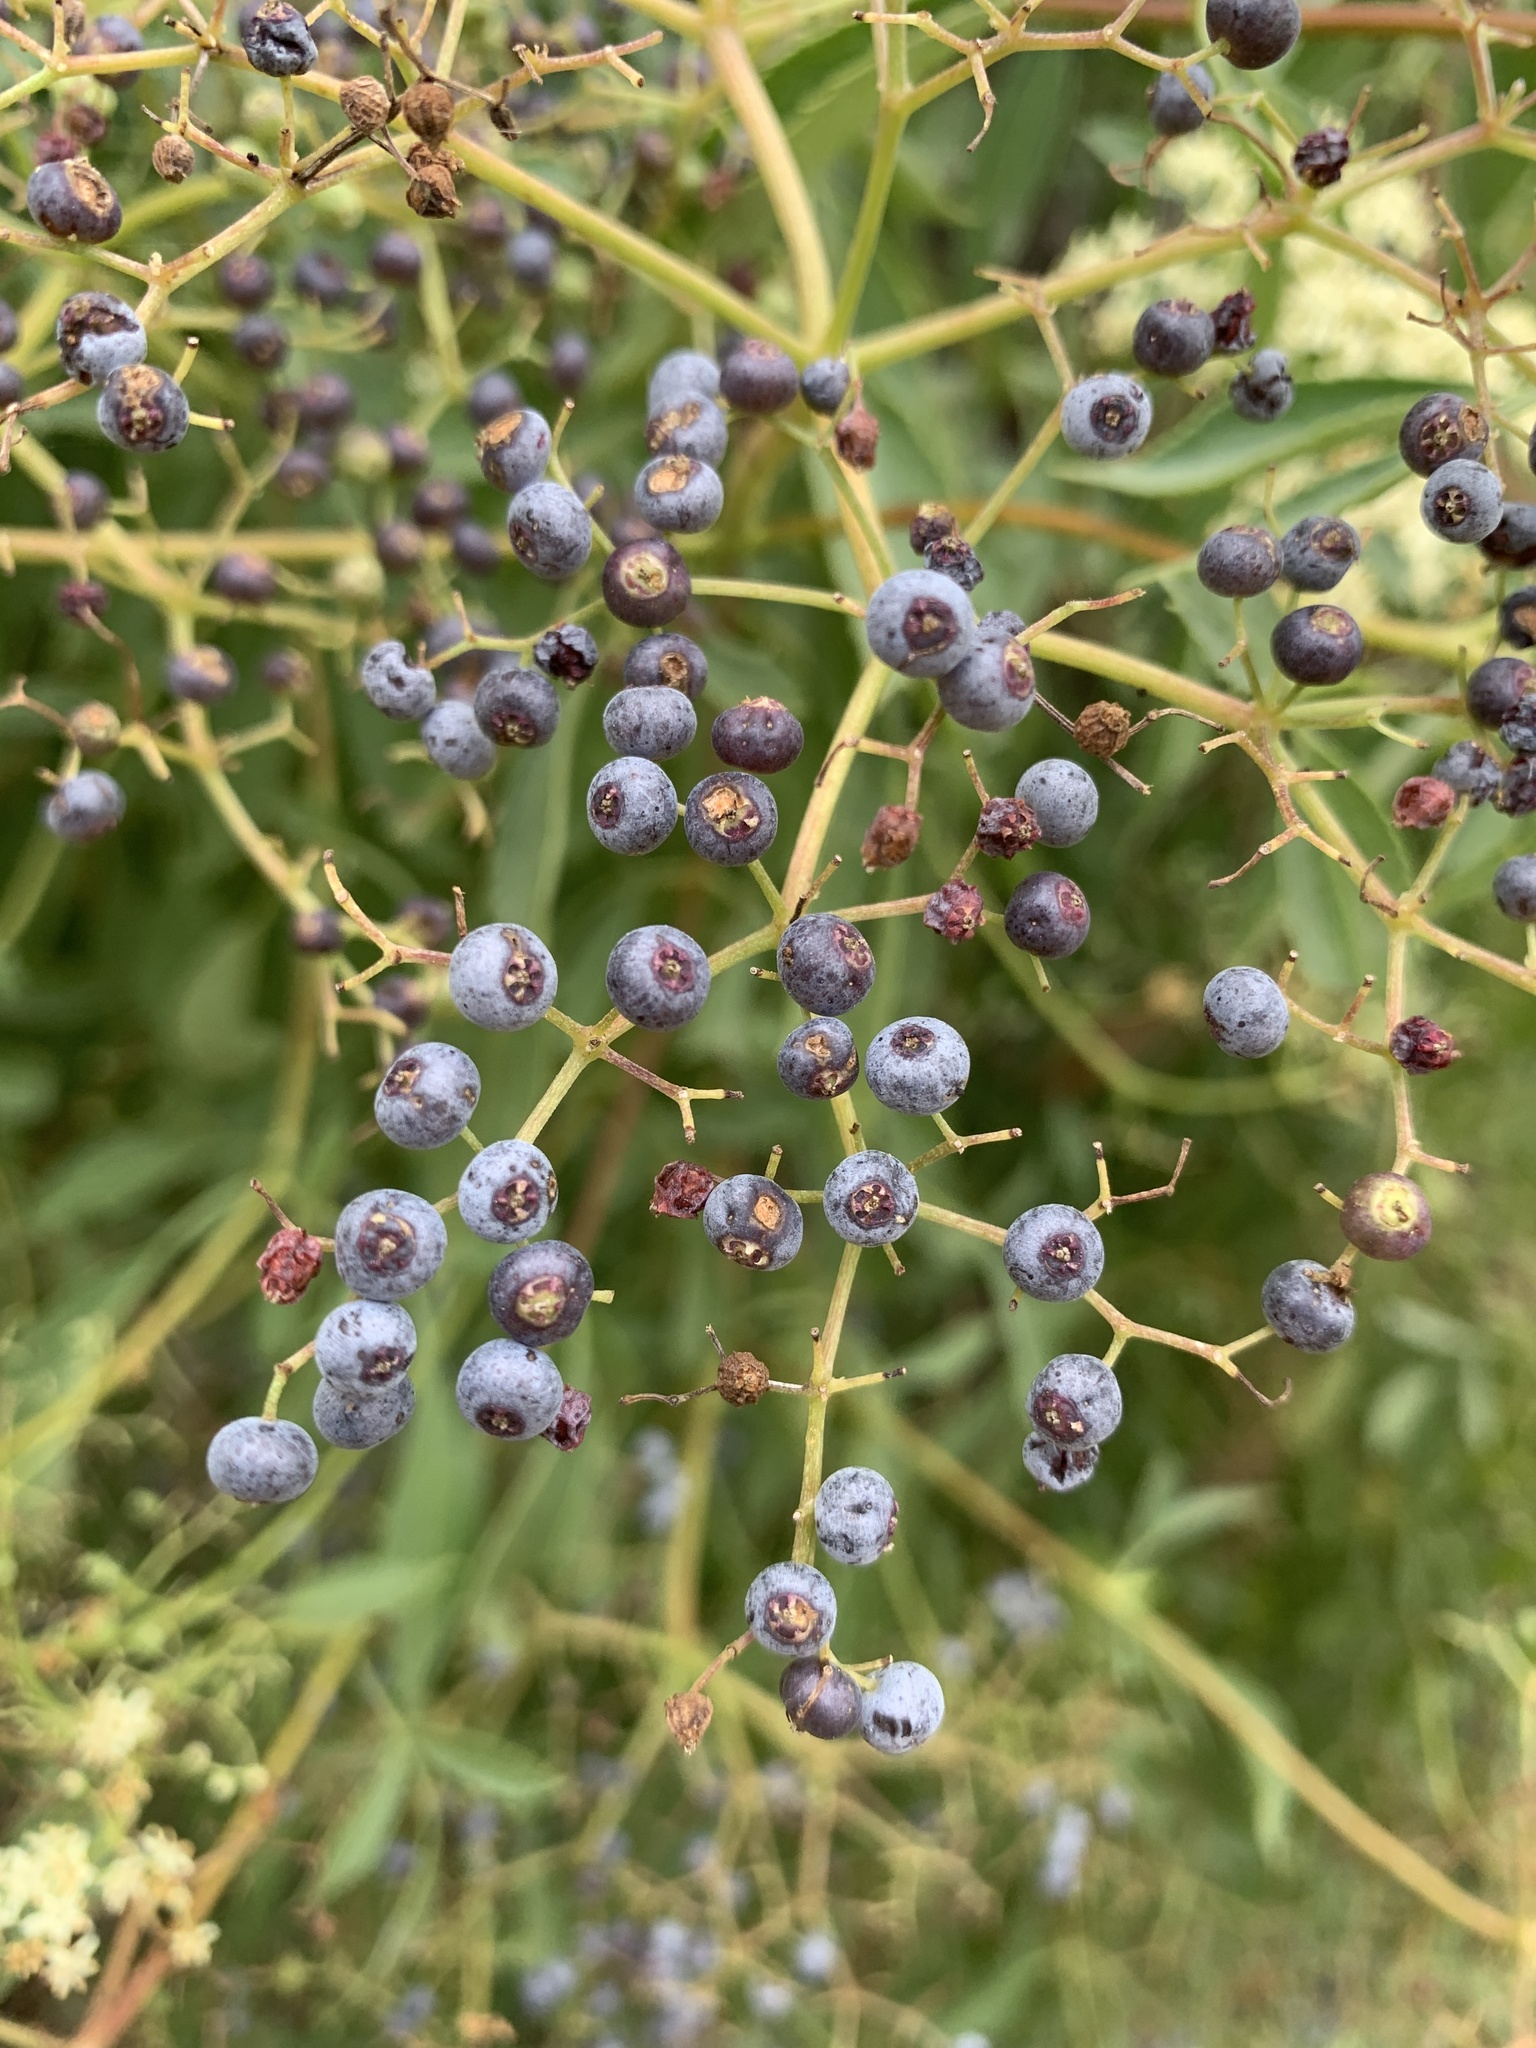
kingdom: Plantae
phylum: Tracheophyta
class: Magnoliopsida
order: Dipsacales
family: Viburnaceae
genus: Sambucus
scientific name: Sambucus cerulea
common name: Blue elder
